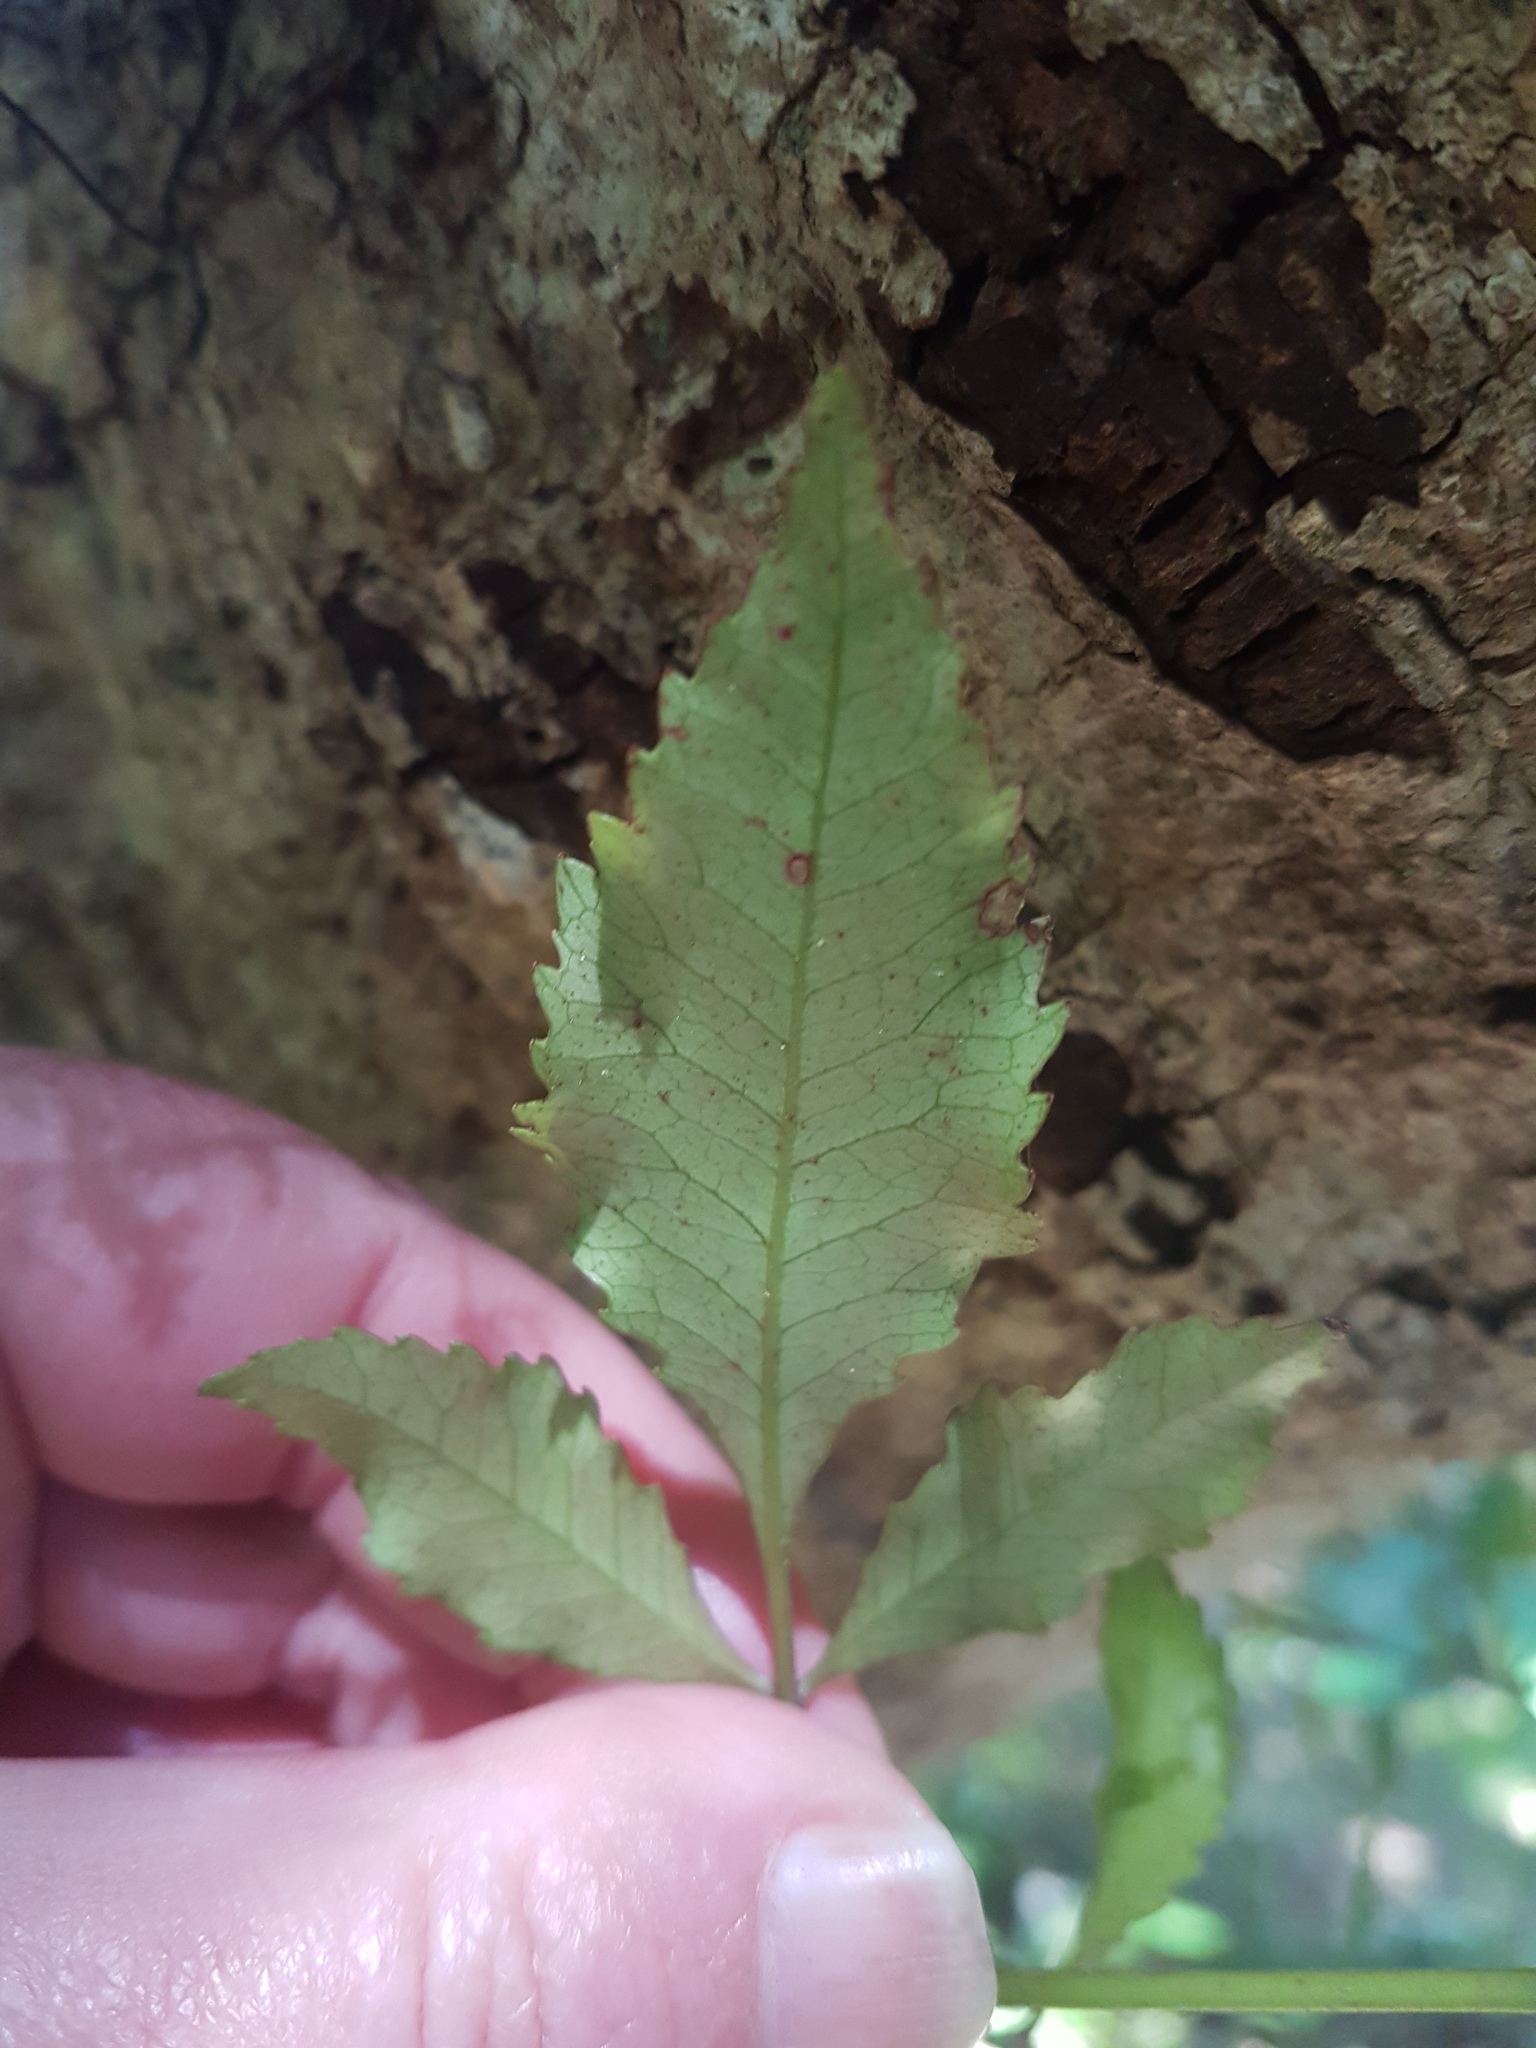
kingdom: Plantae
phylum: Tracheophyta
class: Magnoliopsida
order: Oxalidales
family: Cunoniaceae
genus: Pterophylla
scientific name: Pterophylla racemosa
